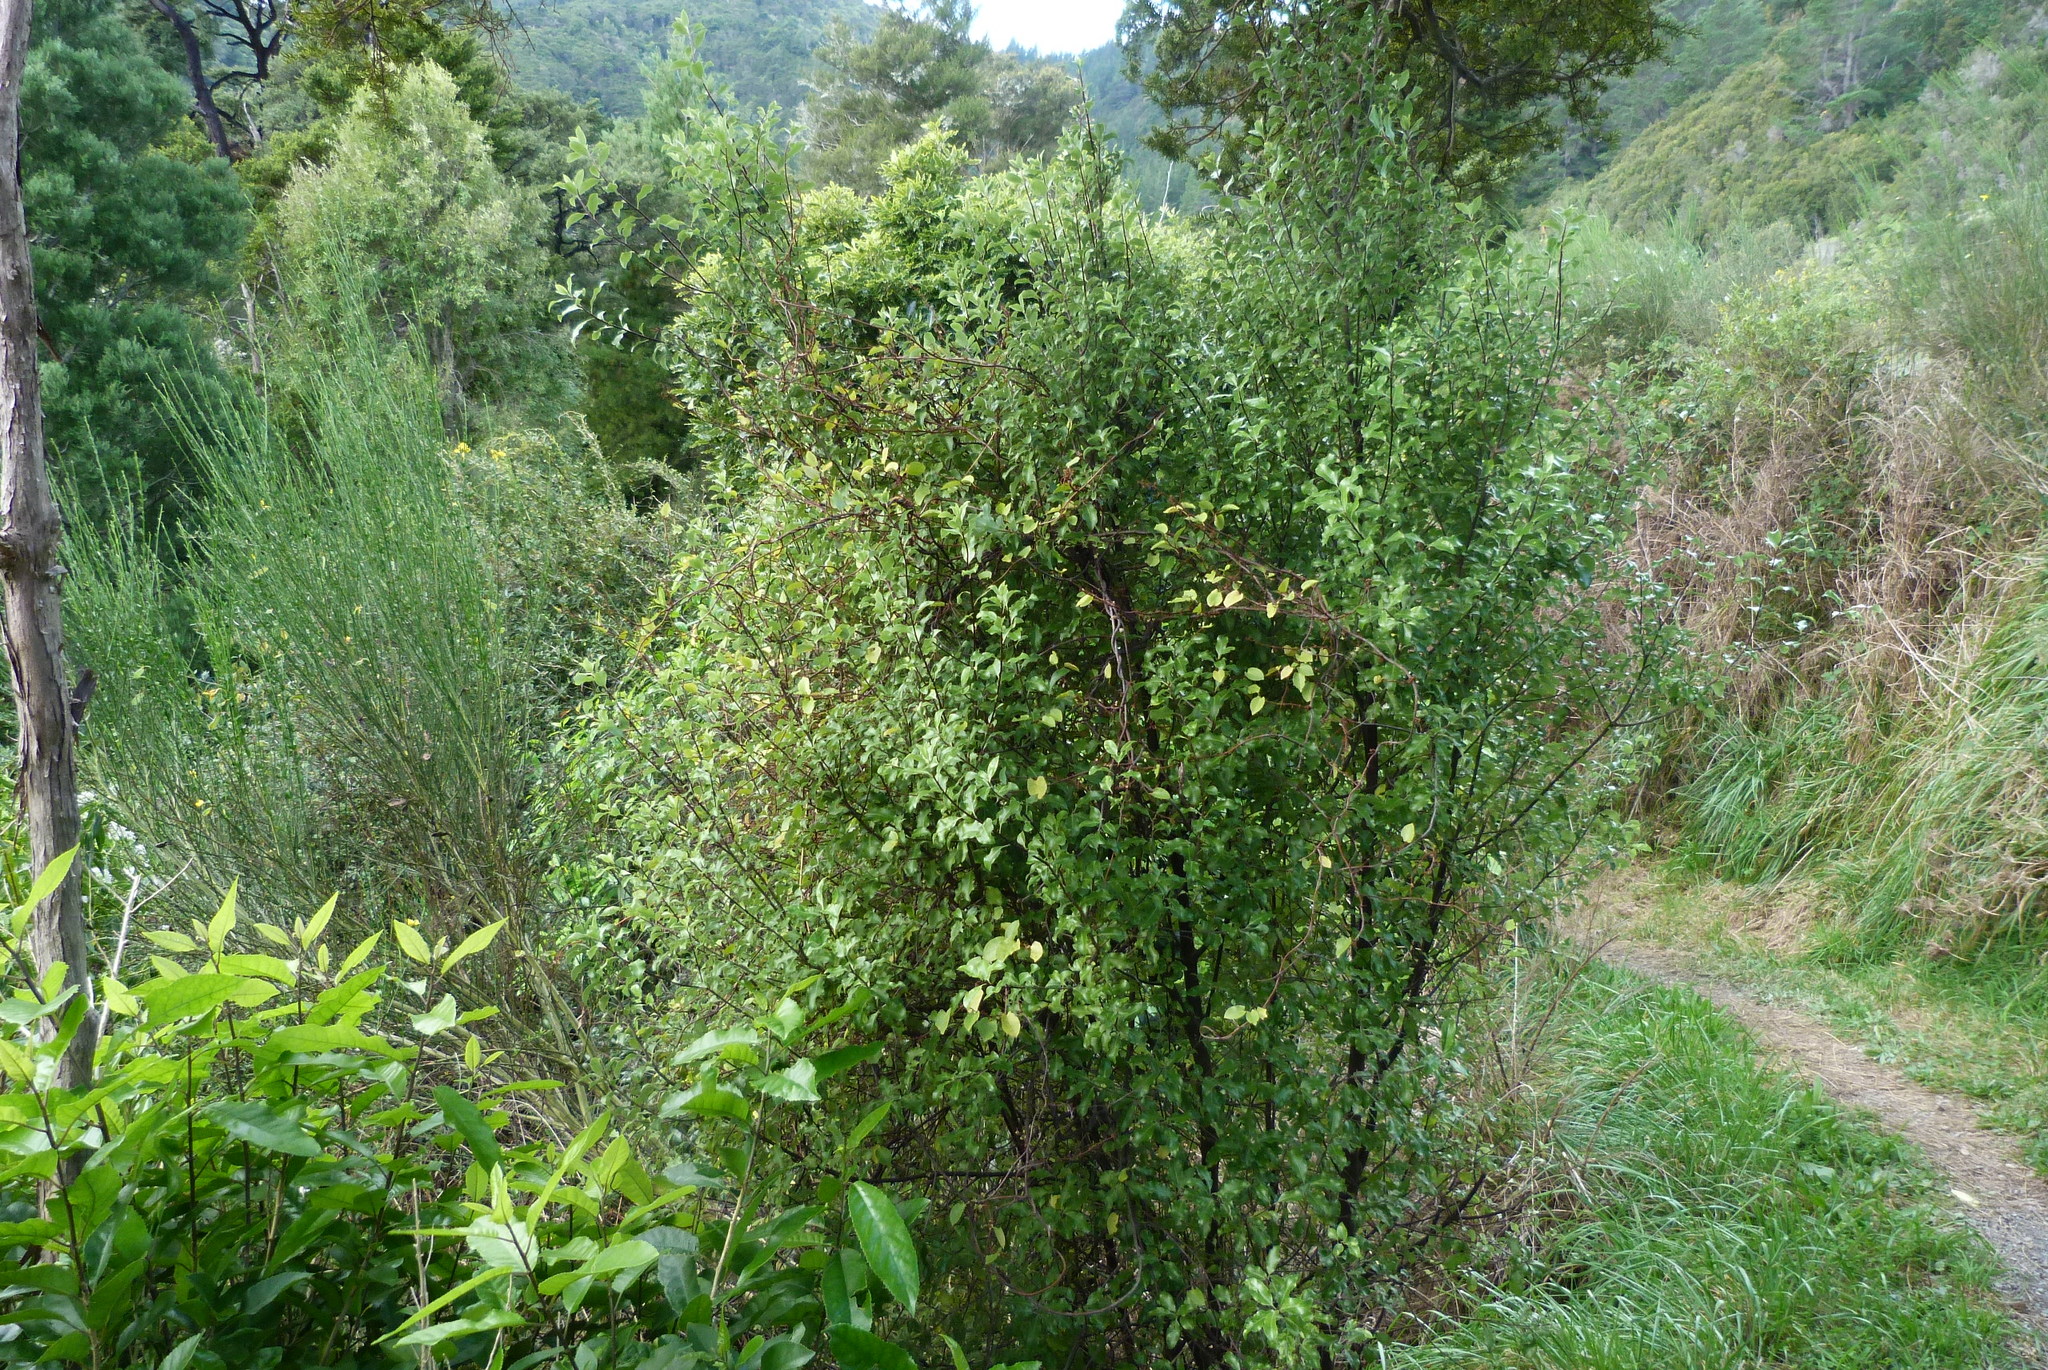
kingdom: Plantae
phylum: Tracheophyta
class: Magnoliopsida
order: Apiales
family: Pittosporaceae
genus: Pittosporum
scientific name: Pittosporum tenuifolium
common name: Kohuhu
